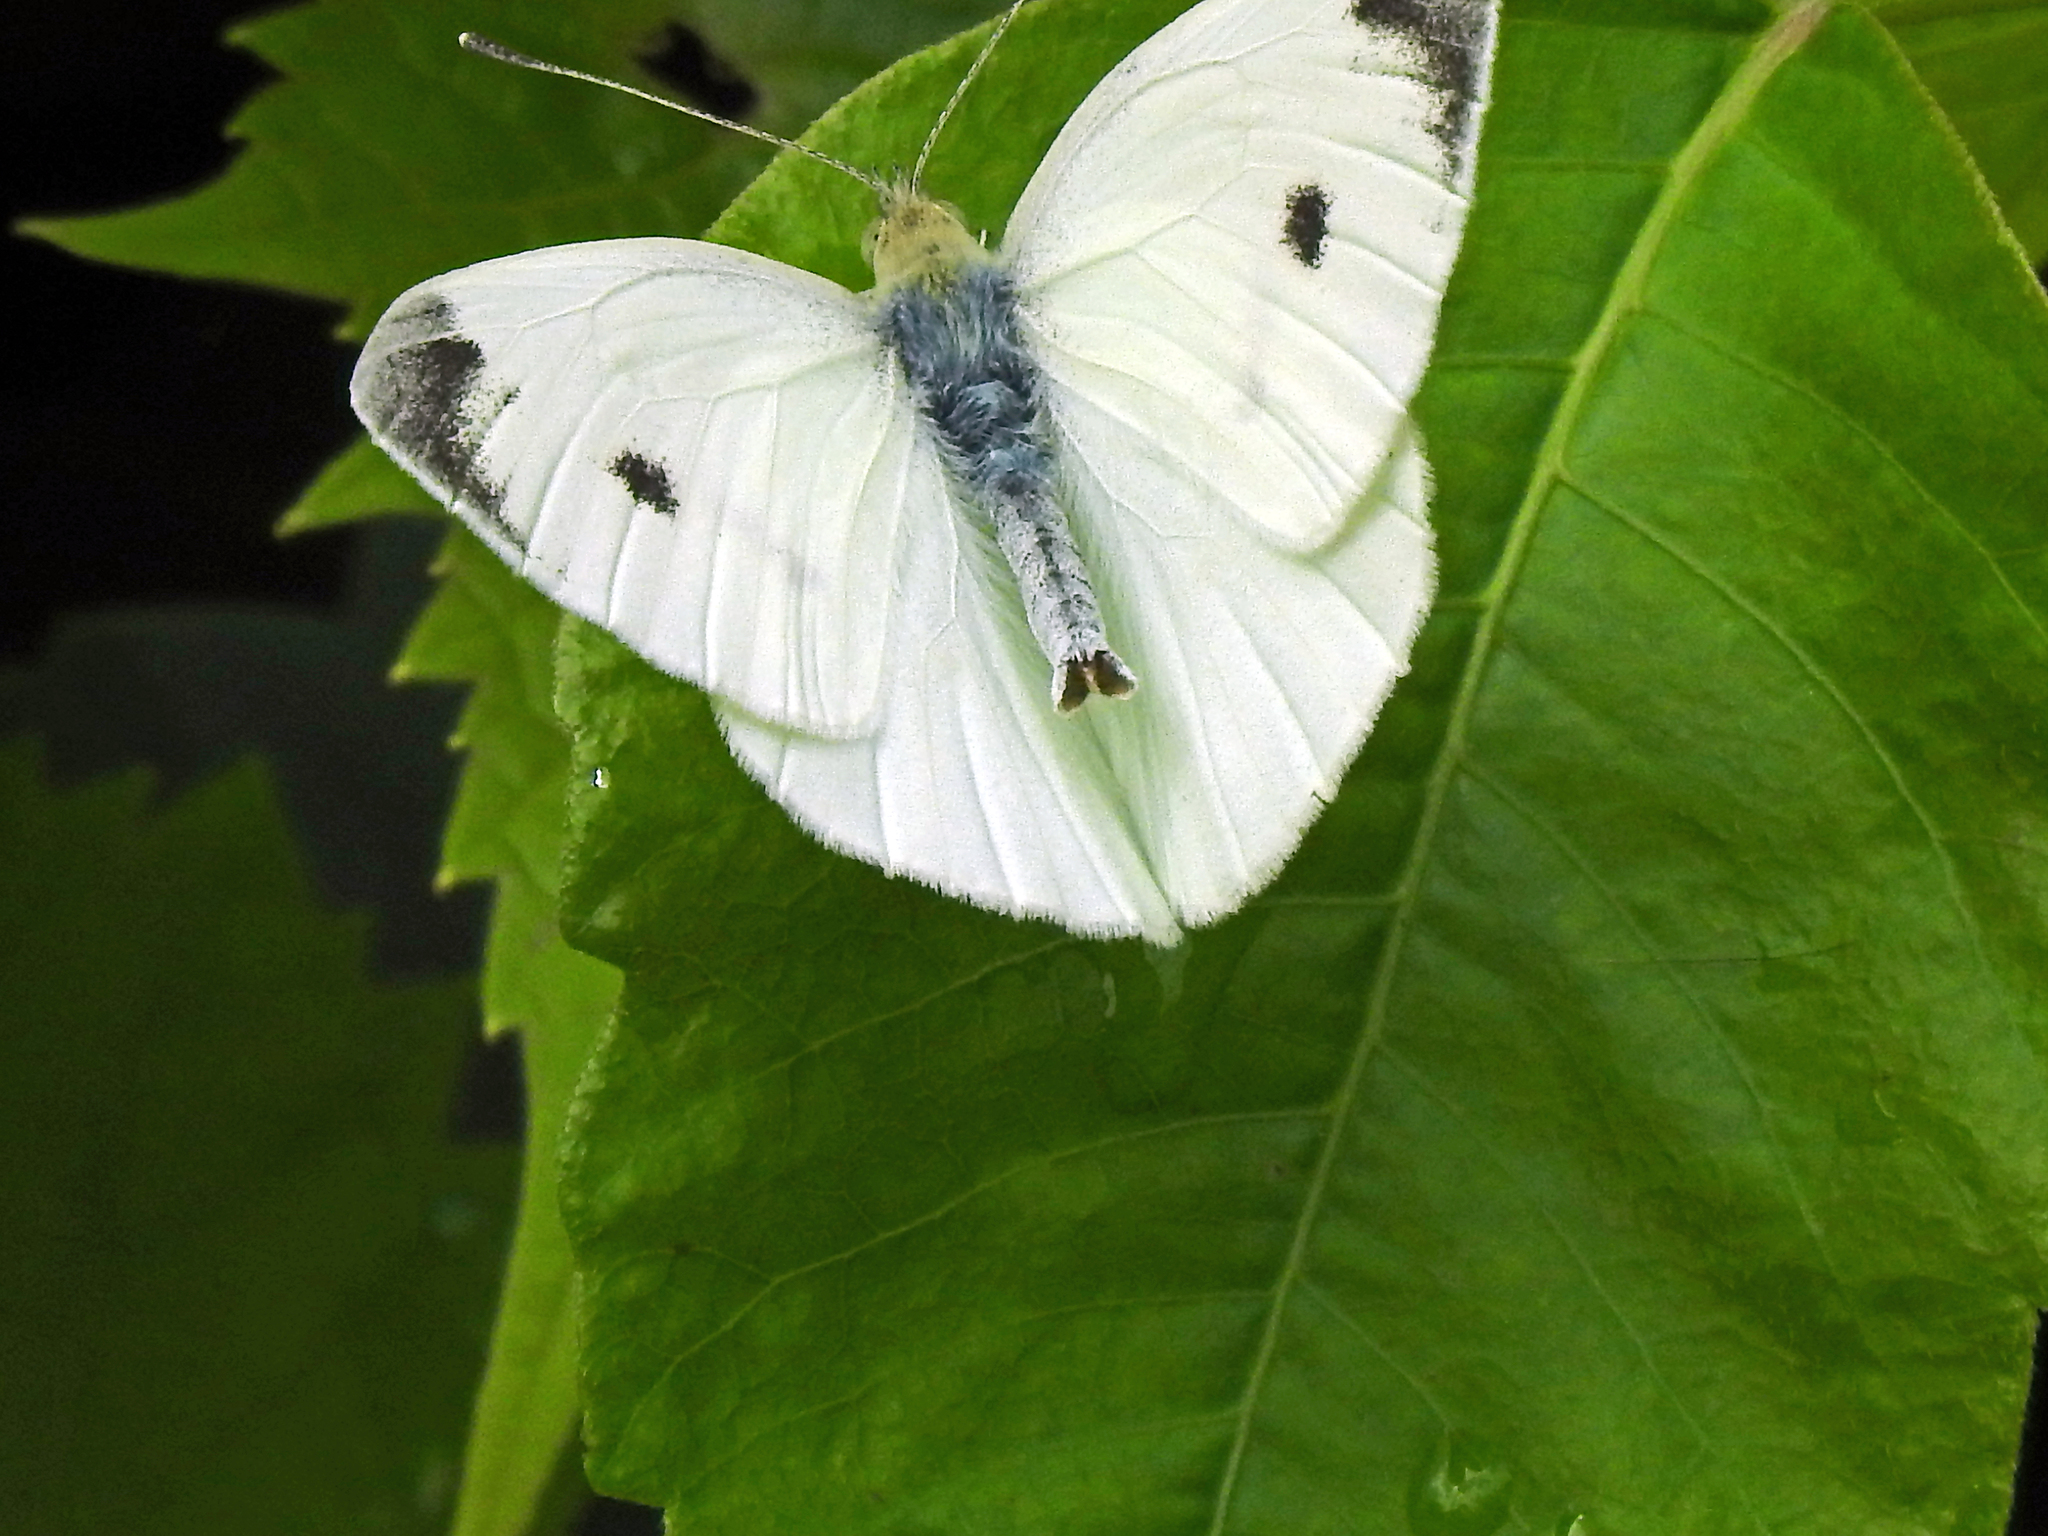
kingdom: Animalia
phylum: Arthropoda
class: Insecta
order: Lepidoptera
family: Pieridae
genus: Pieris
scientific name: Pieris rapae
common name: Small white
